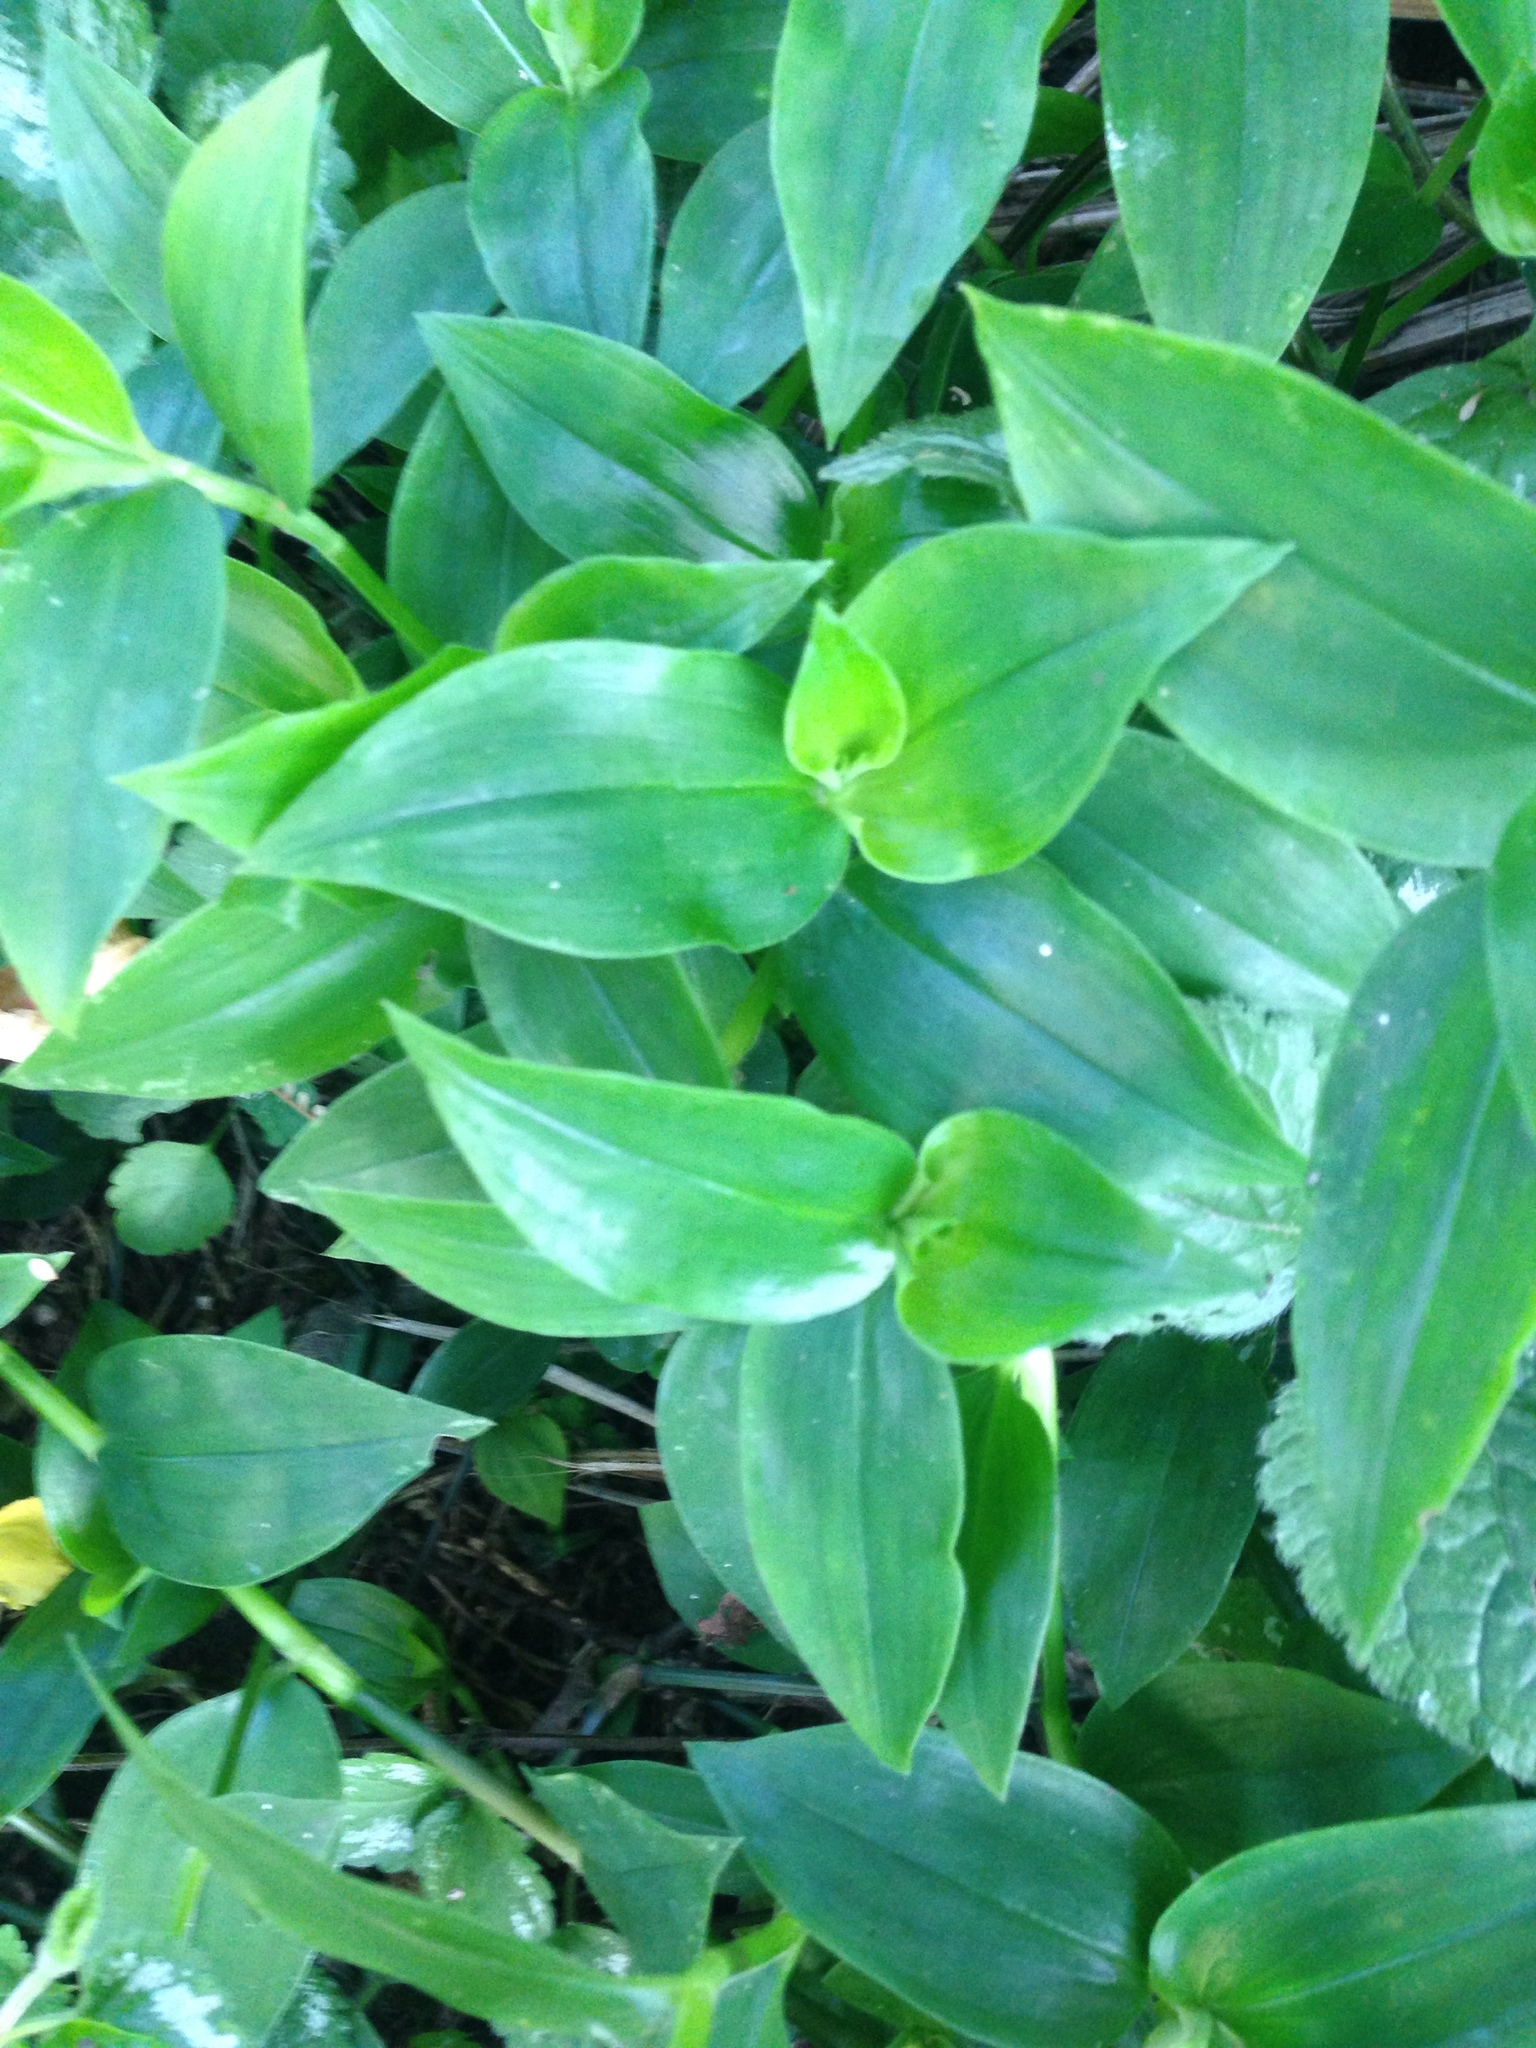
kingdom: Plantae
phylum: Tracheophyta
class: Liliopsida
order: Commelinales
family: Commelinaceae
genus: Tradescantia
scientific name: Tradescantia fluminensis
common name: Wandering-jew
